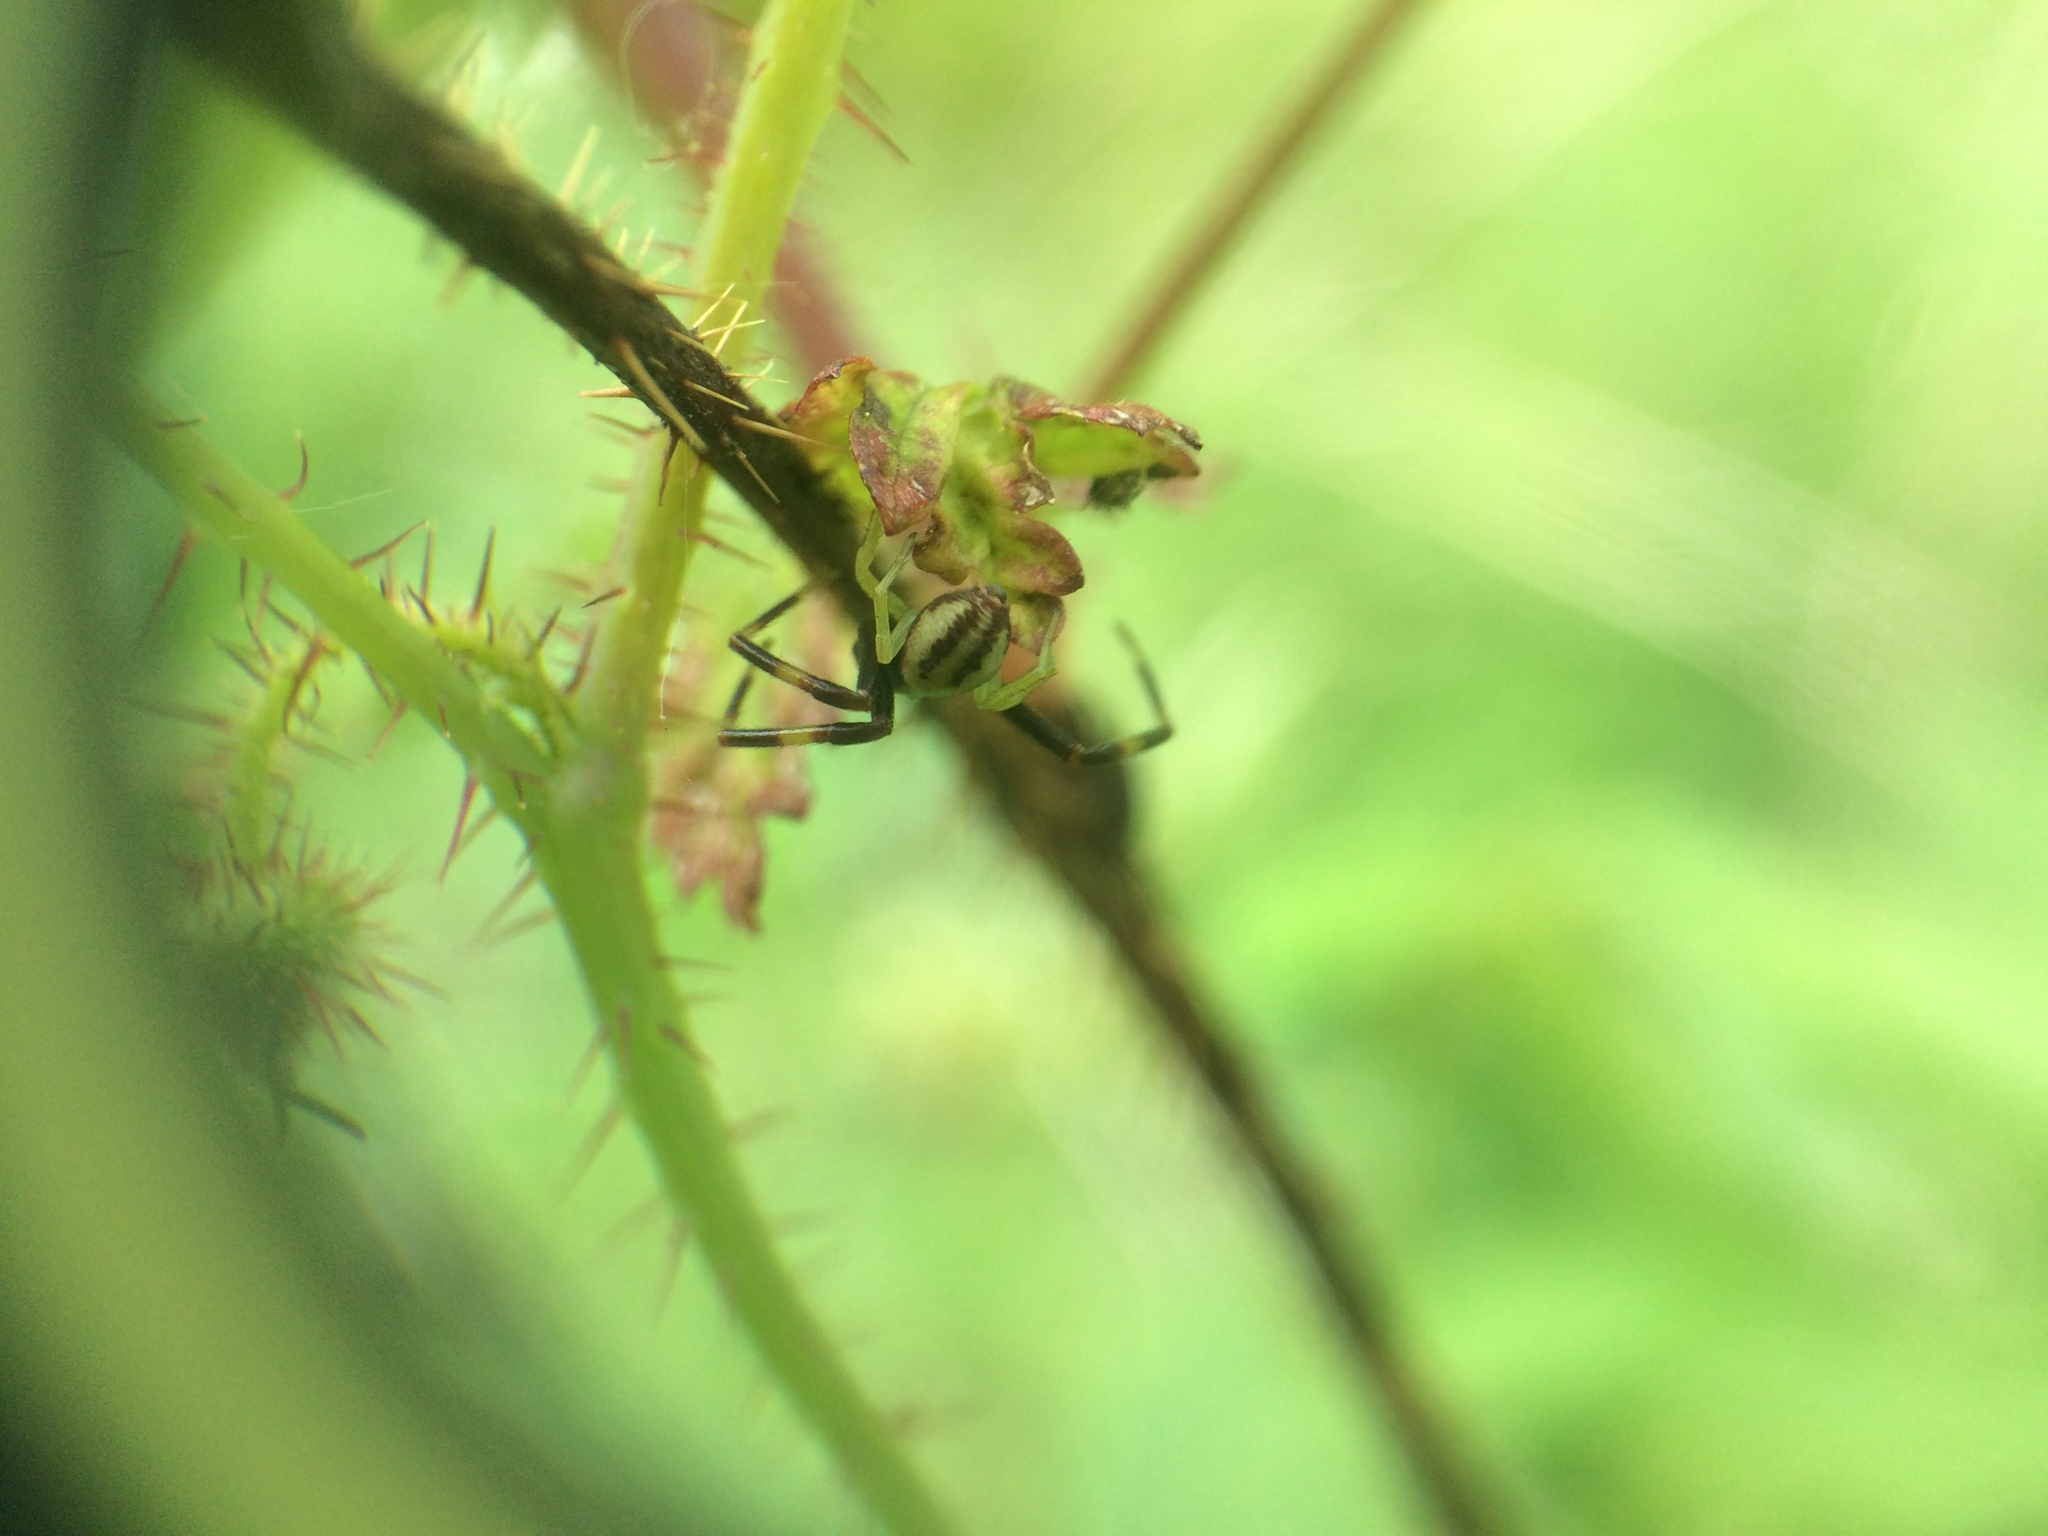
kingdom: Animalia
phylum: Arthropoda
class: Arachnida
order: Araneae
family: Thomisidae
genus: Misumena
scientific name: Misumena vatia
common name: Goldenrod crab spider
